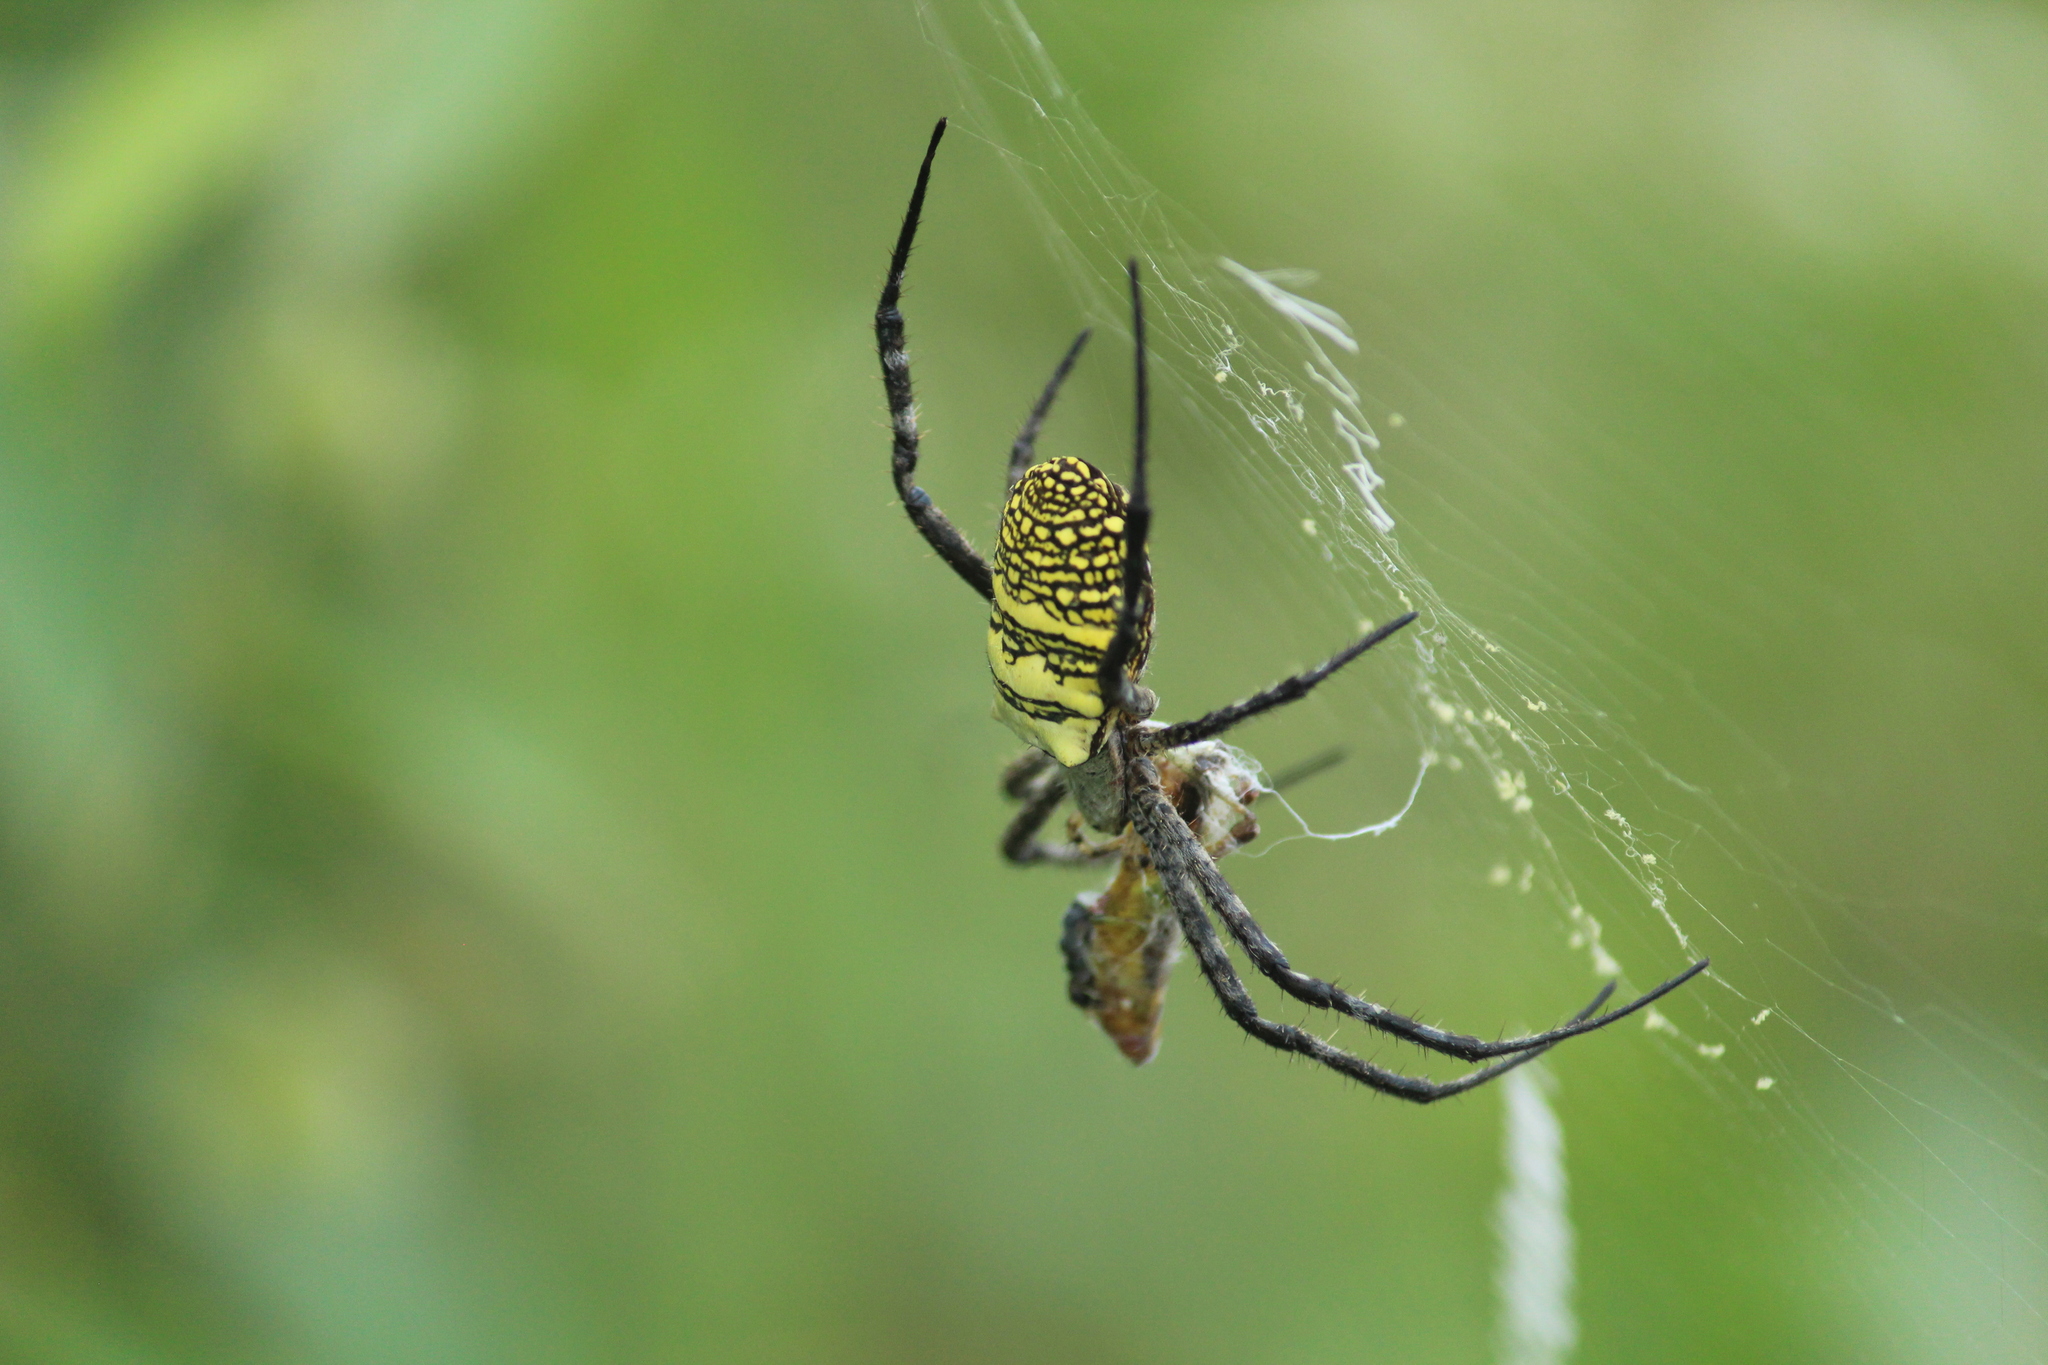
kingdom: Animalia
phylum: Arthropoda
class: Arachnida
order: Araneae
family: Araneidae
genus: Argiope
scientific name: Argiope aemula
